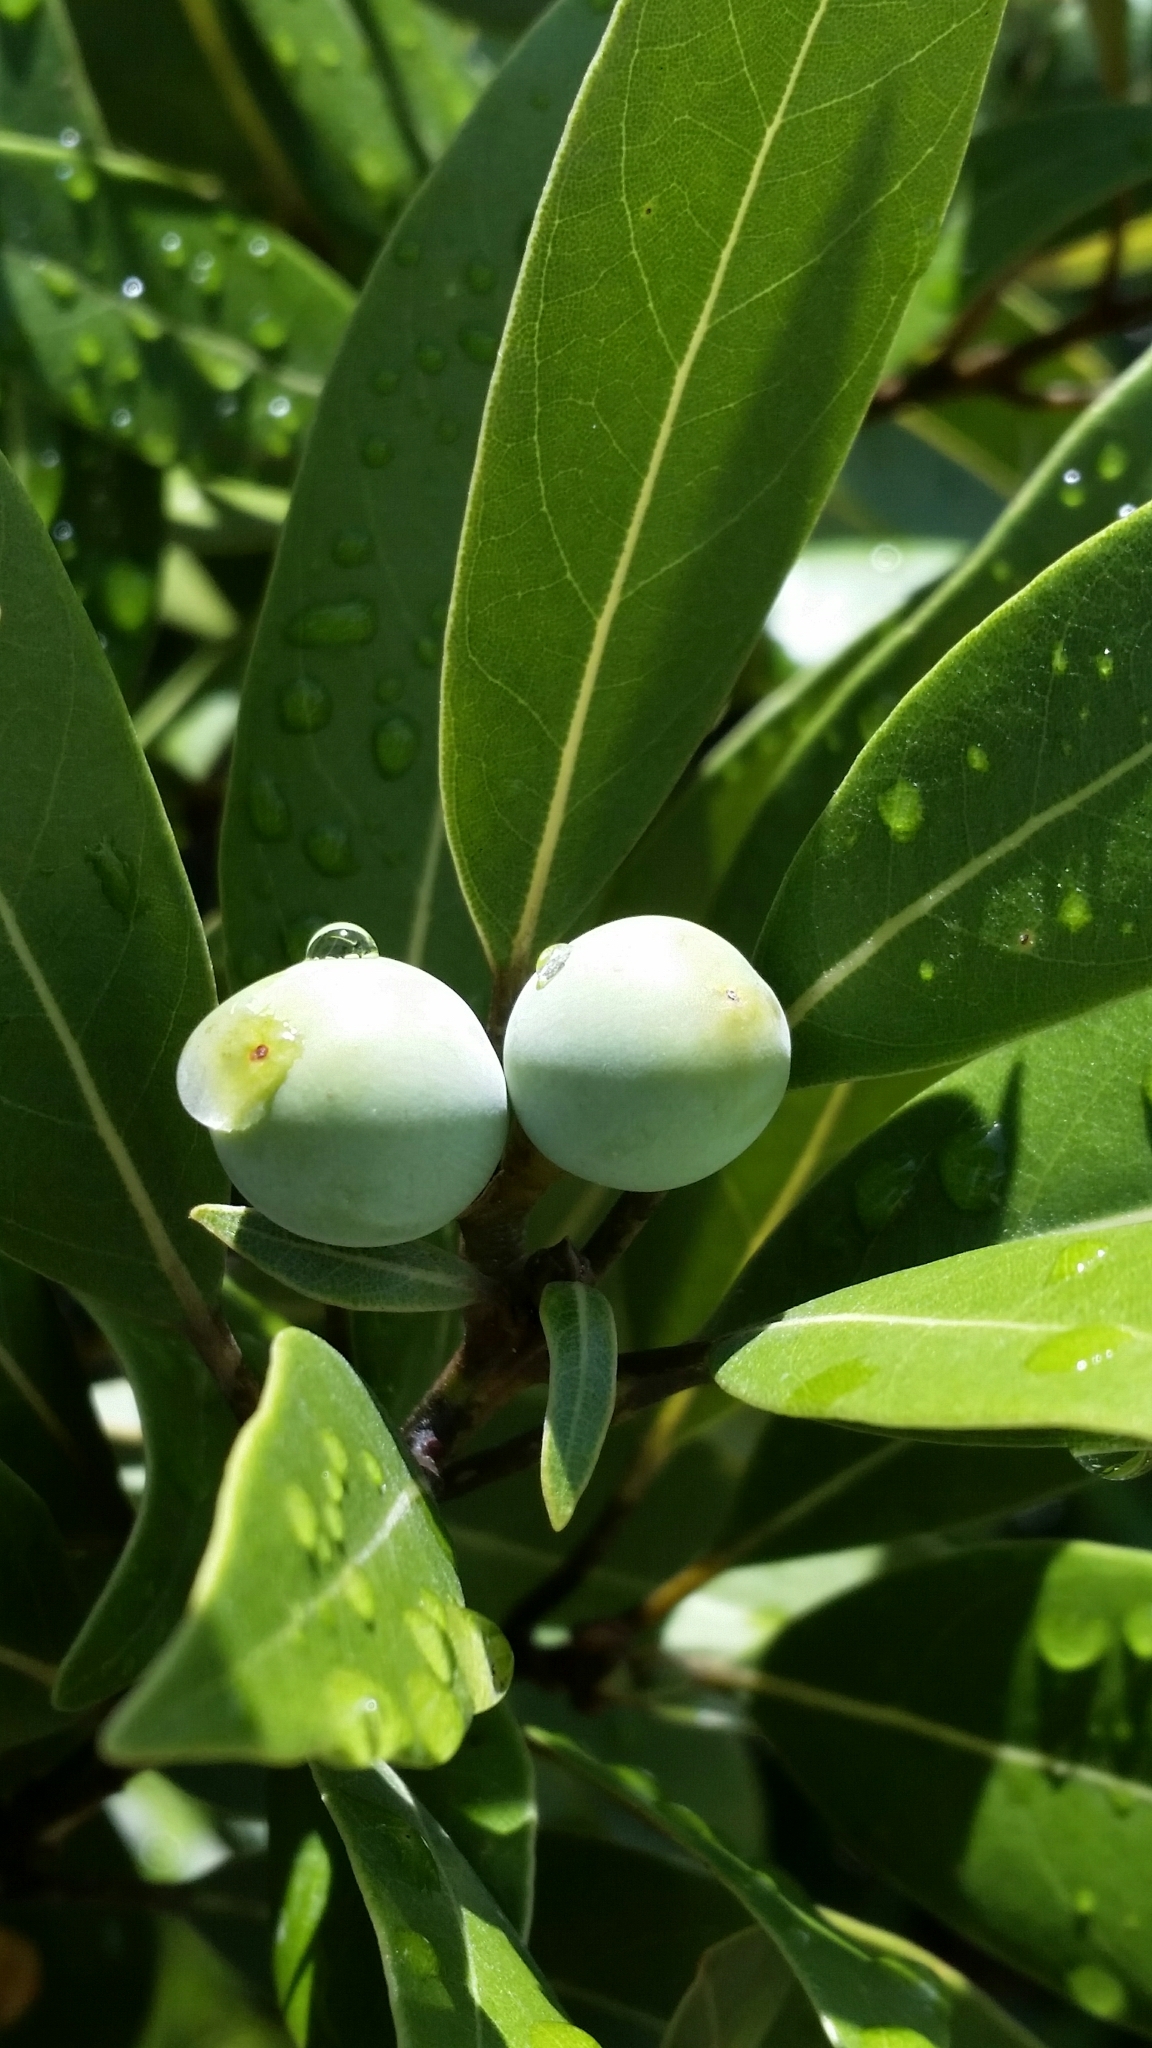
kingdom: Plantae
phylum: Tracheophyta
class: Magnoliopsida
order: Laurales
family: Lauraceae
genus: Persea
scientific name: Persea humilis
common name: Silkbay
